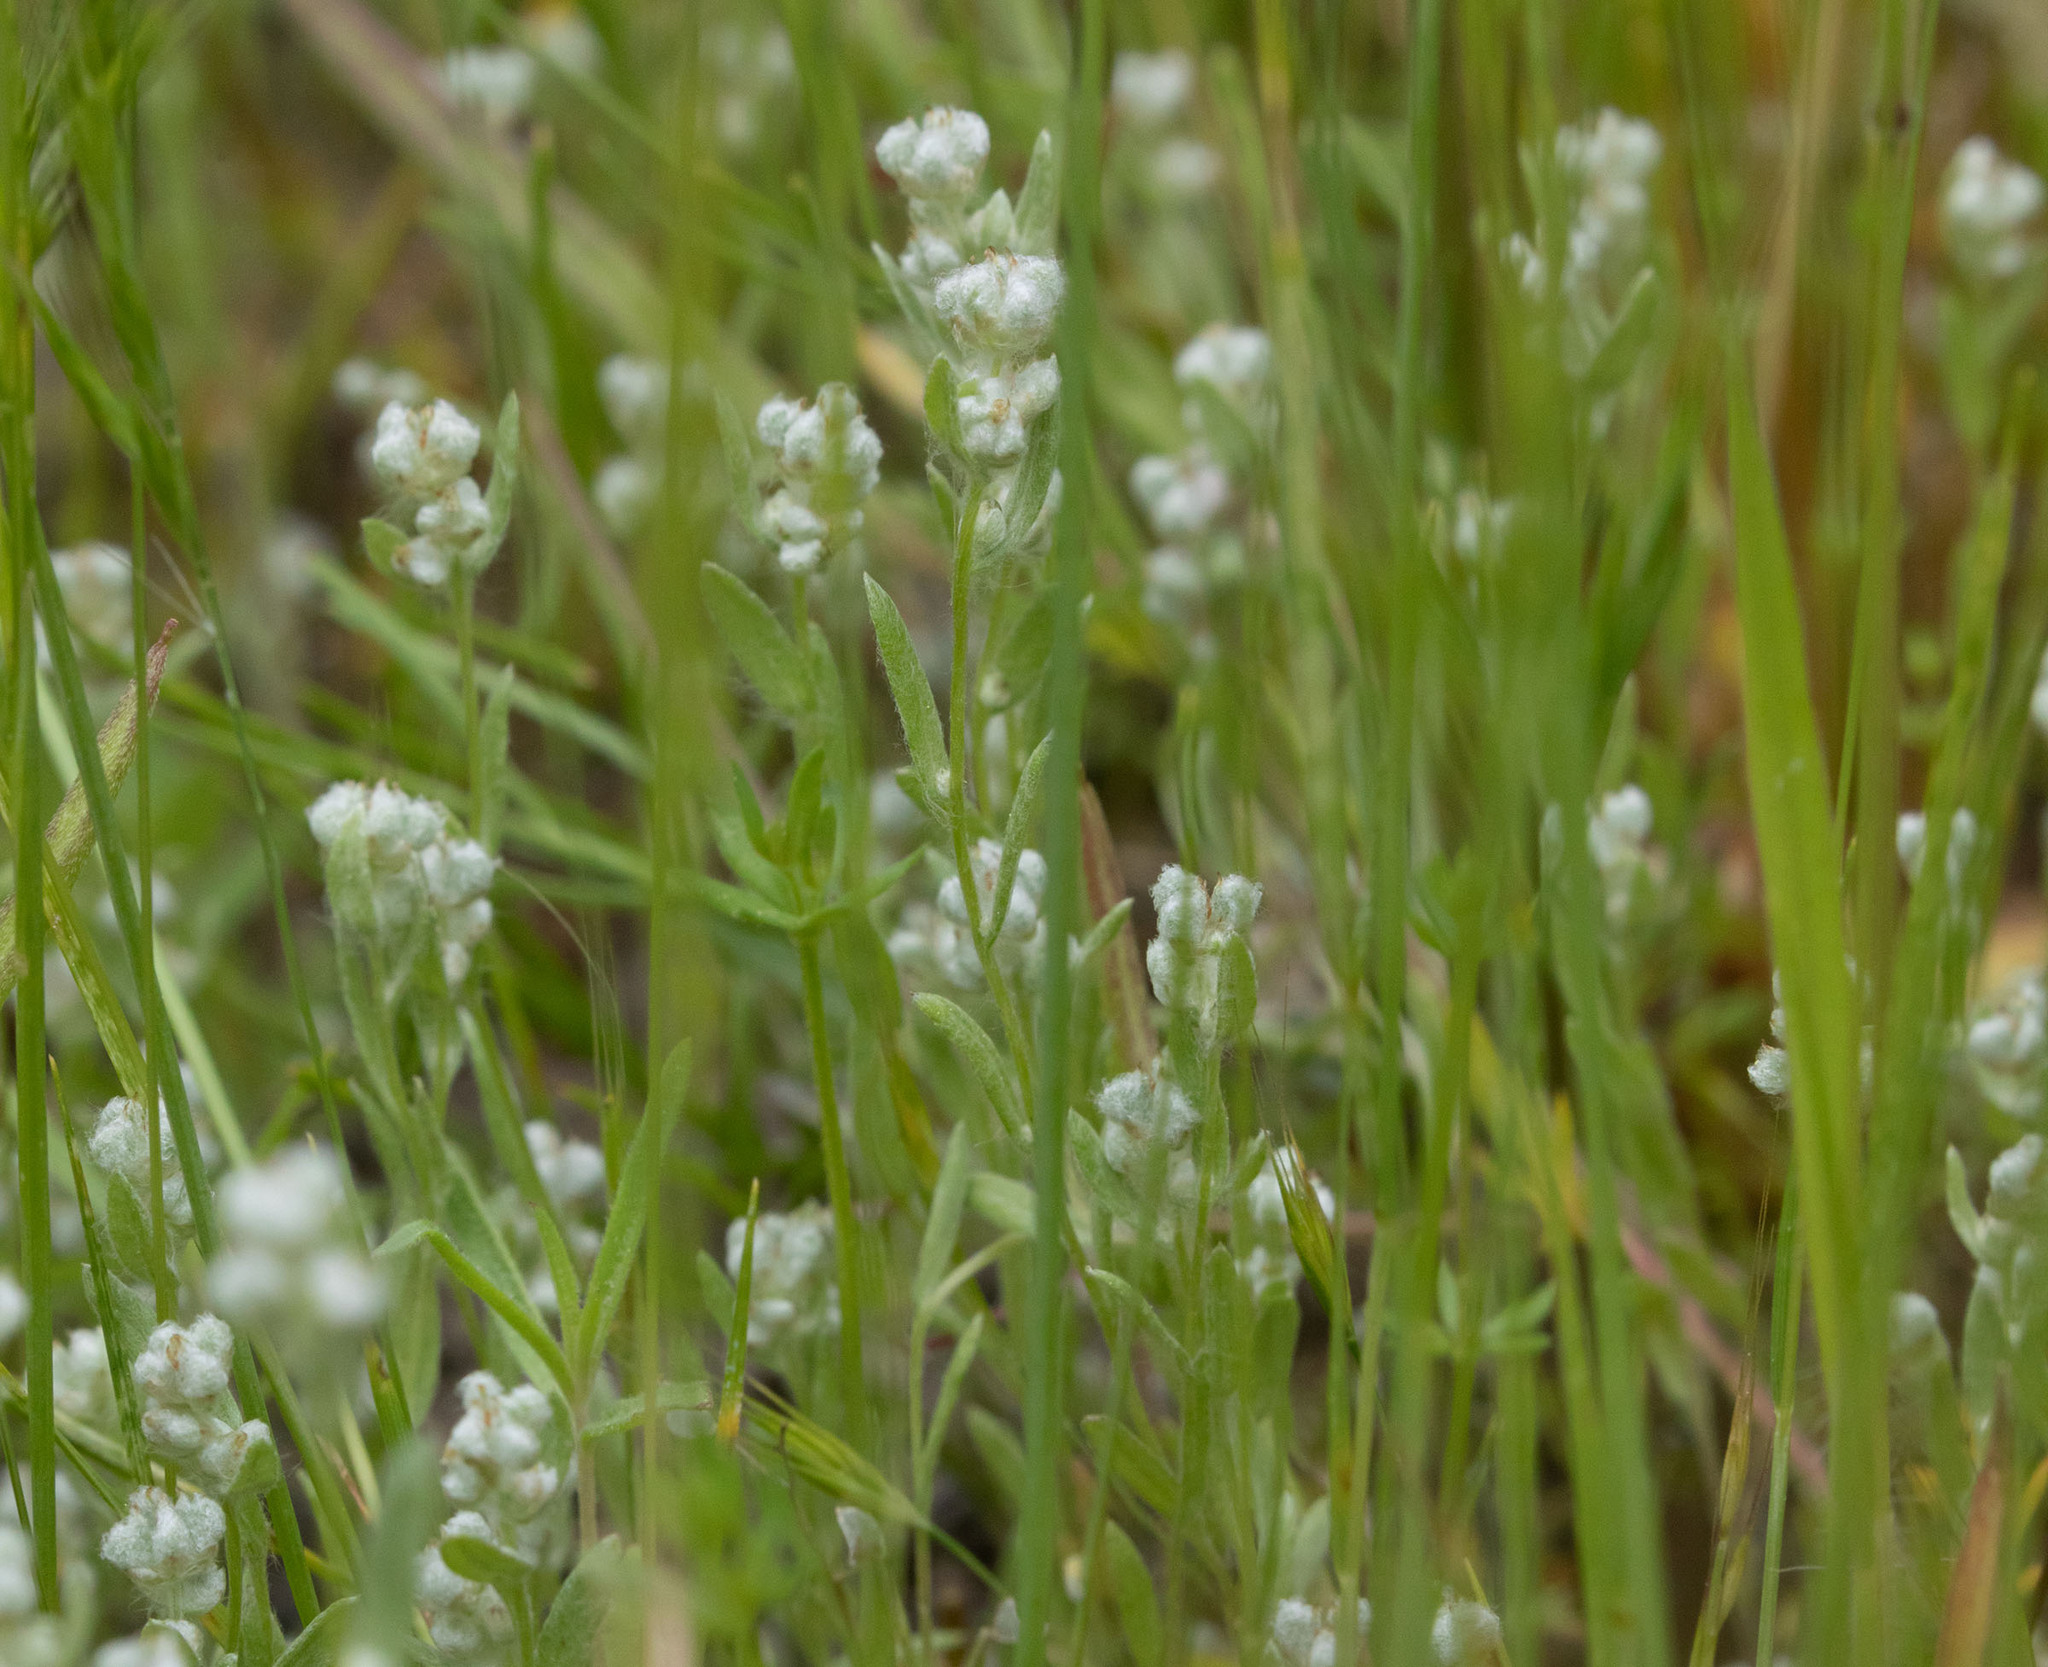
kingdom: Plantae
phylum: Tracheophyta
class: Magnoliopsida
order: Asterales
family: Asteraceae
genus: Bombycilaena
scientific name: Bombycilaena californica
